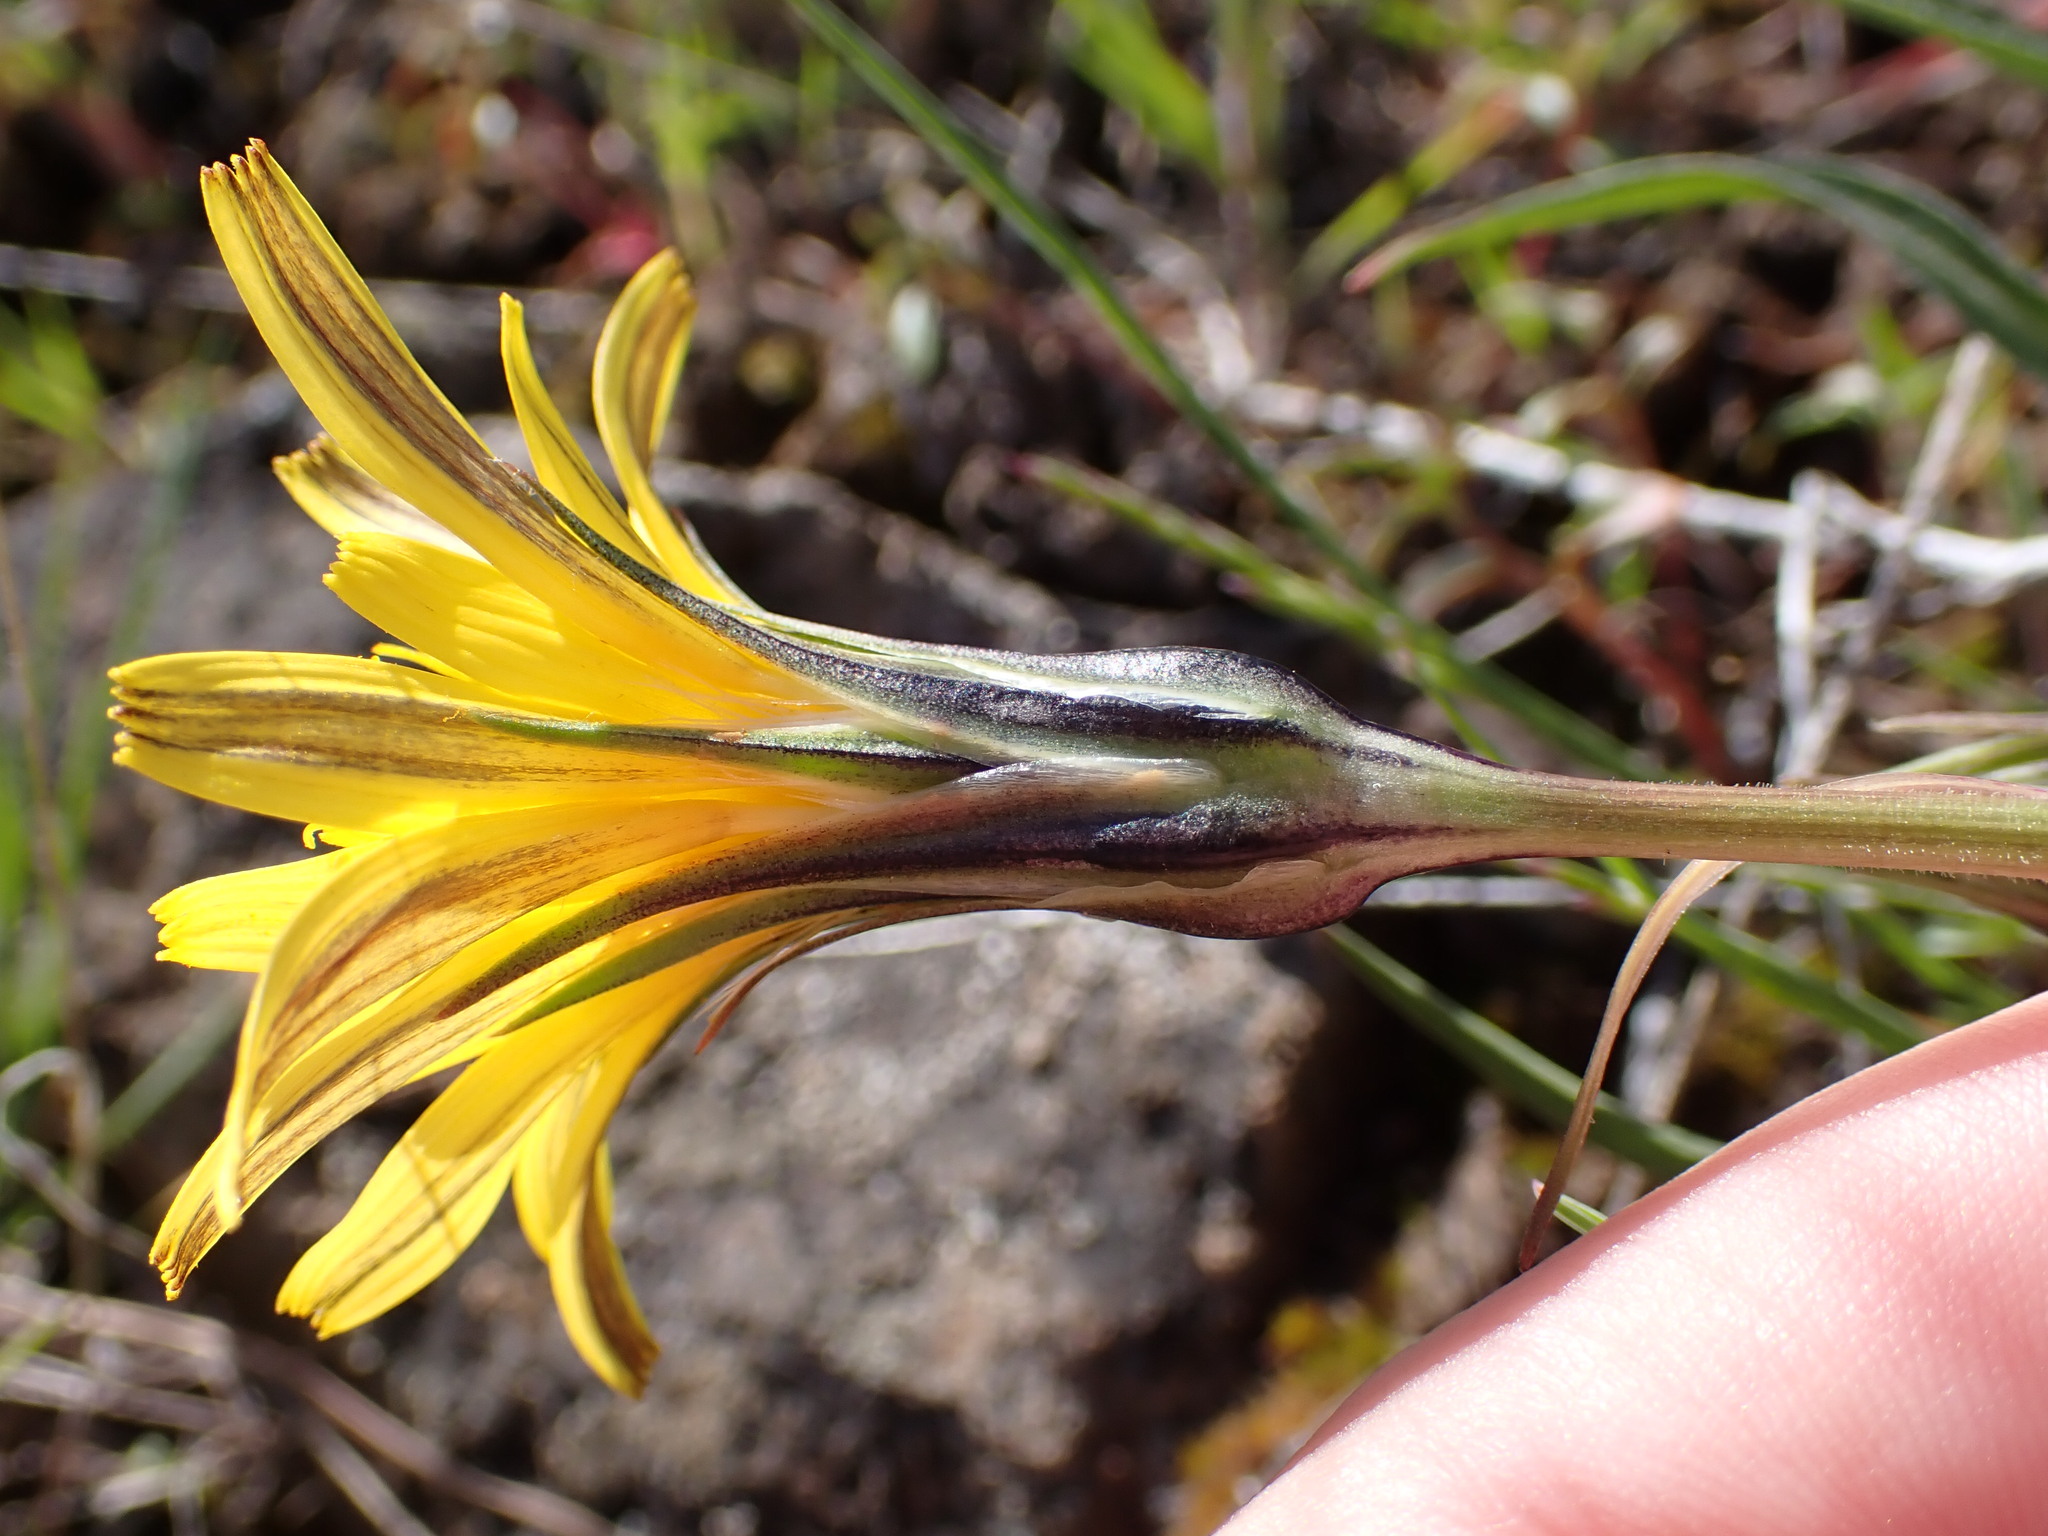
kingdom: Plantae
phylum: Tracheophyta
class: Magnoliopsida
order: Asterales
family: Asteraceae
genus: Microseris
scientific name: Microseris troximoides
